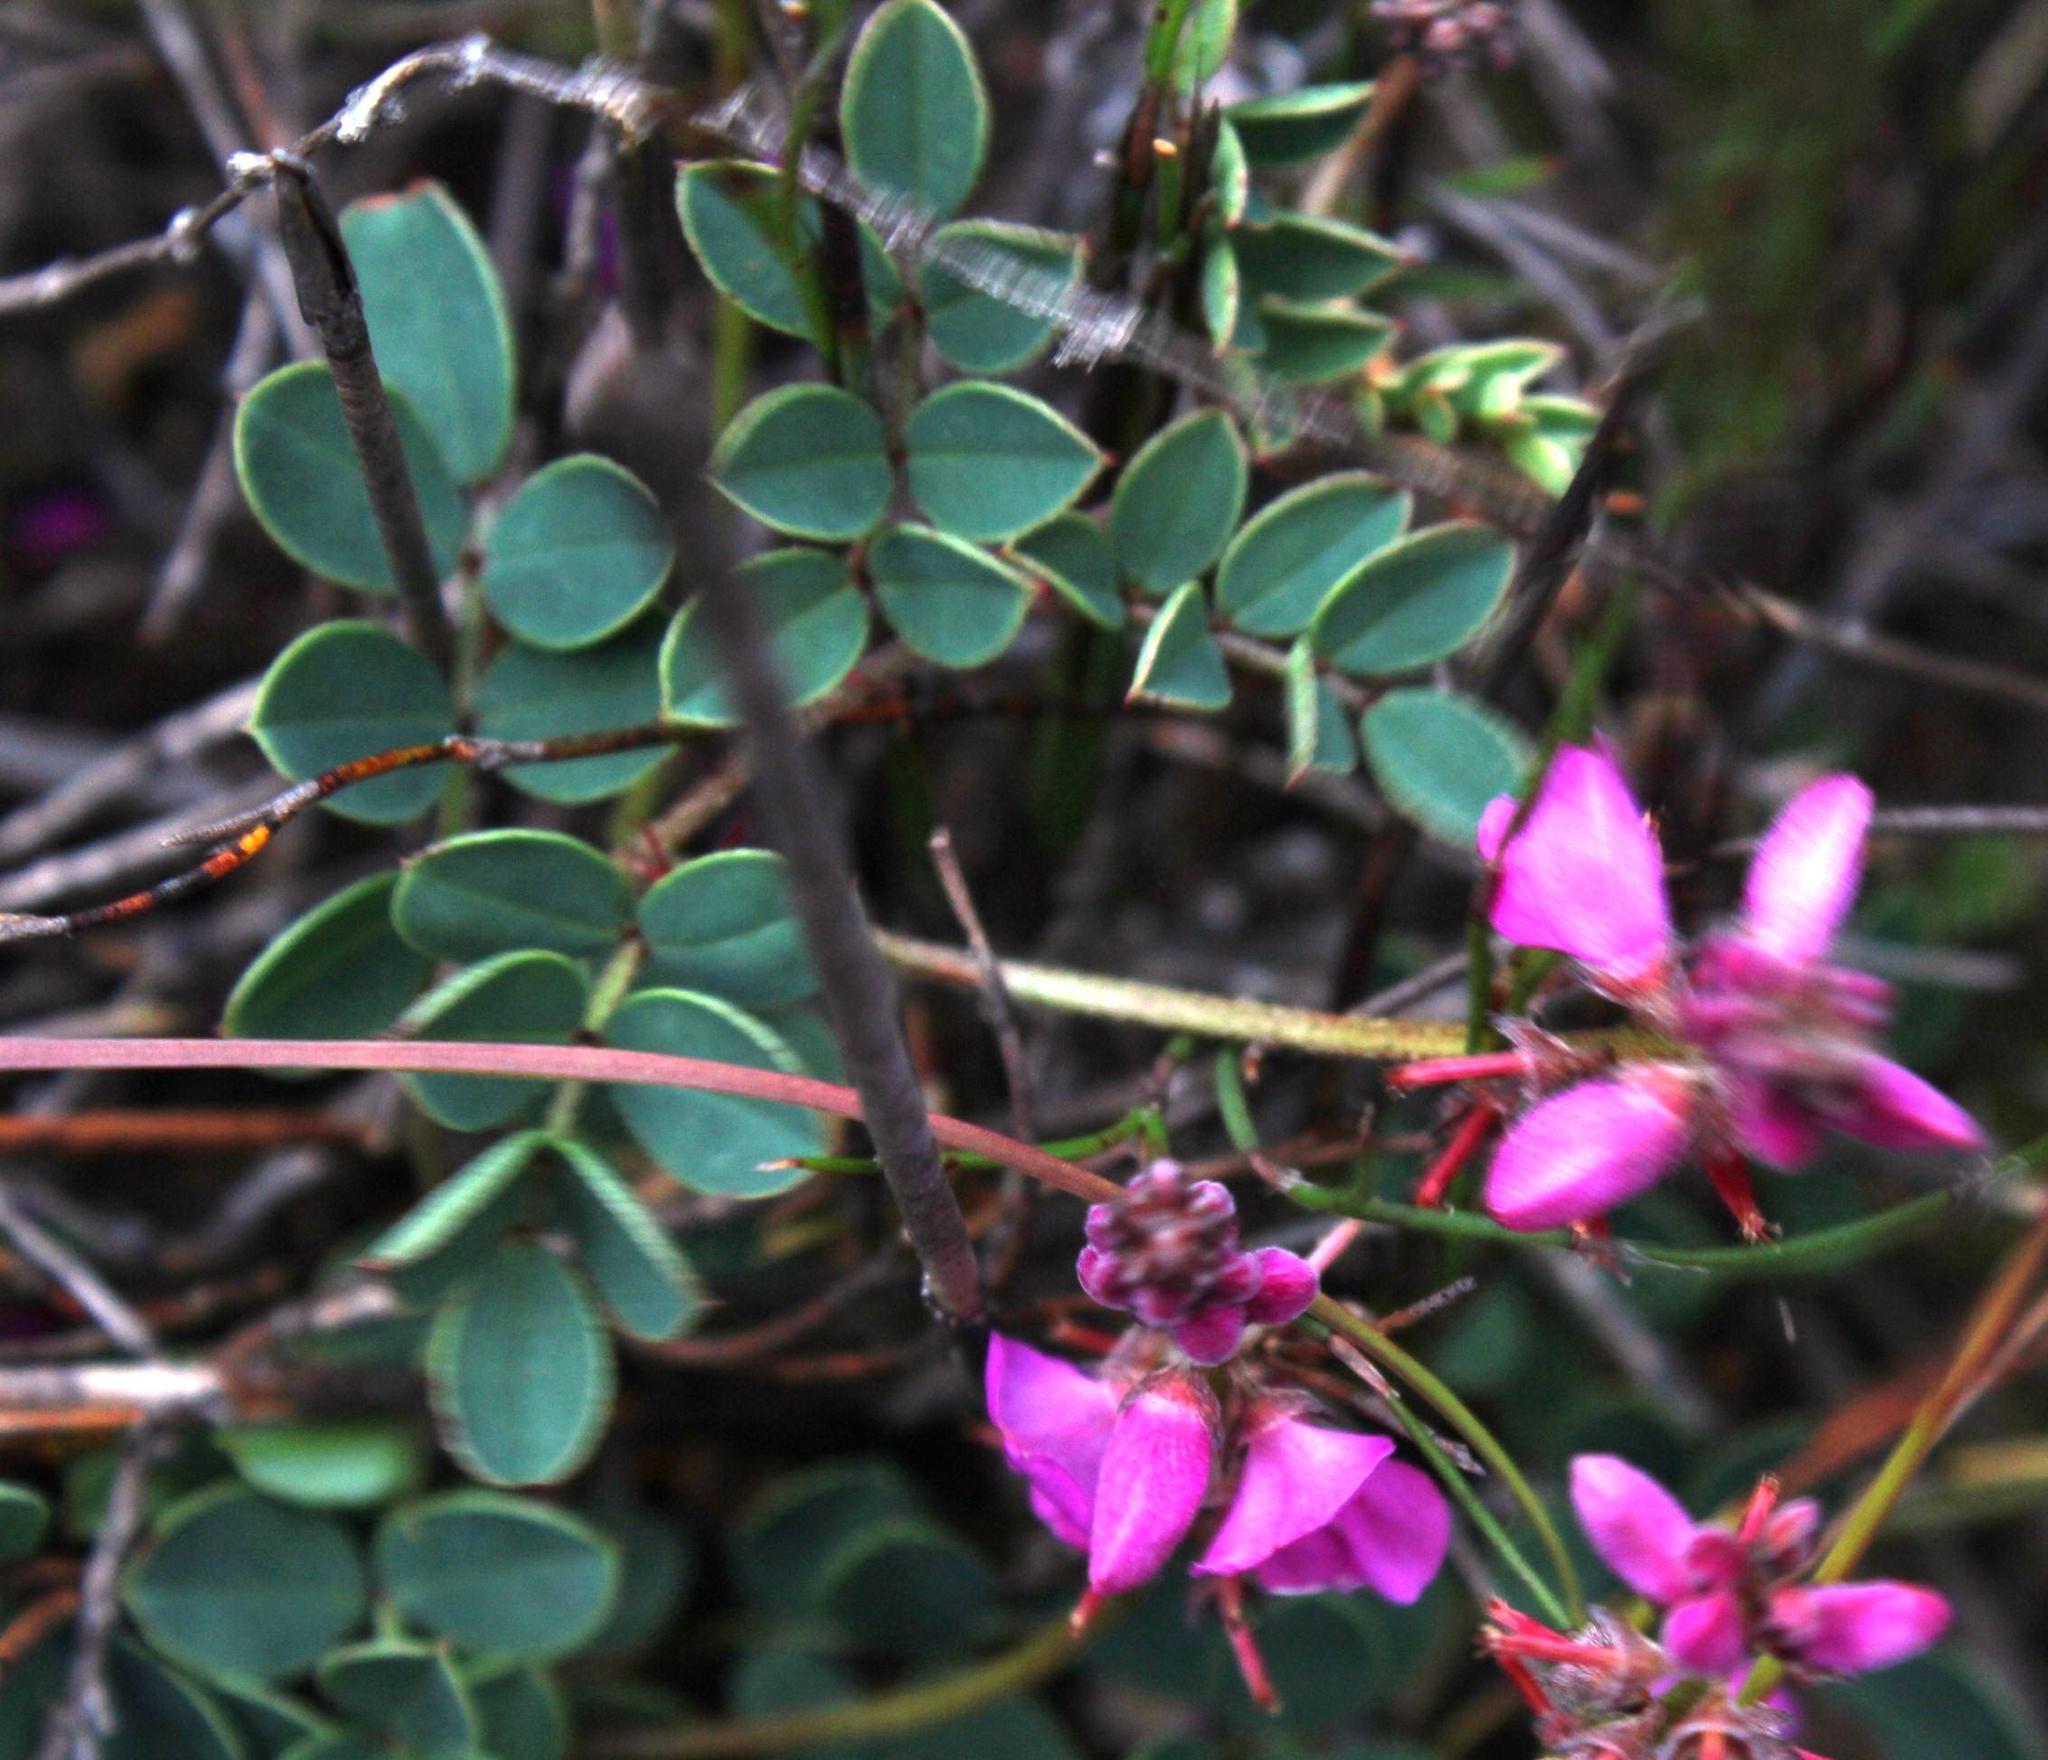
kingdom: Plantae
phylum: Tracheophyta
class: Magnoliopsida
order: Fabales
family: Fabaceae
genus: Indigofera
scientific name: Indigofera
